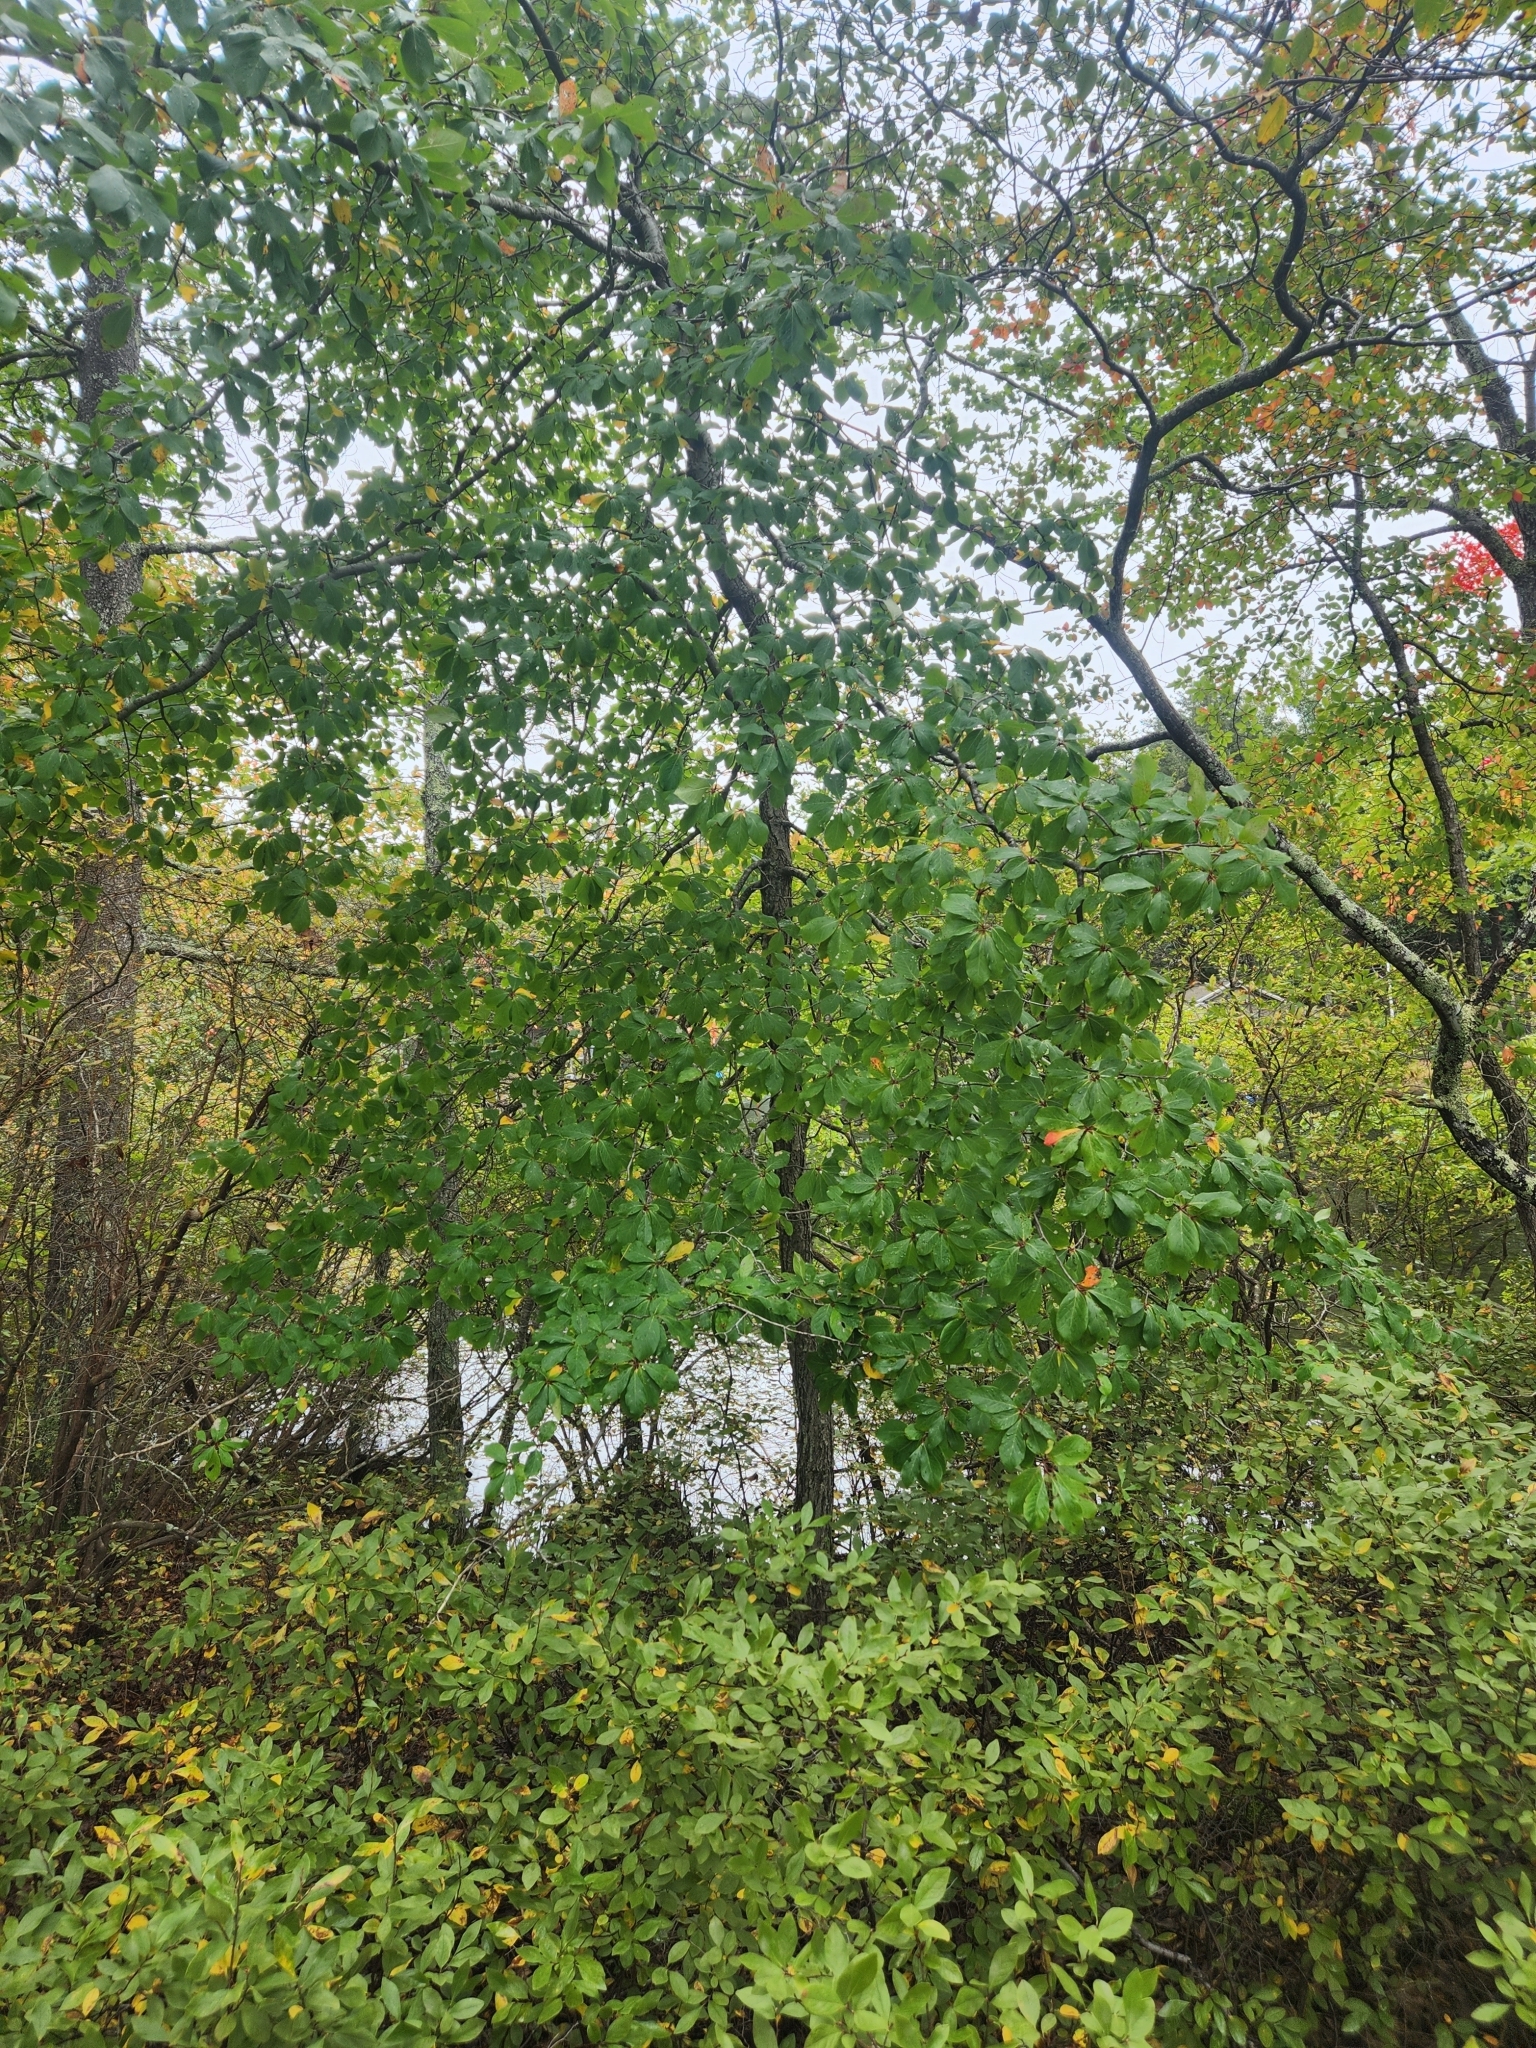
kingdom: Plantae
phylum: Tracheophyta
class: Magnoliopsida
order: Cornales
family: Nyssaceae
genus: Nyssa
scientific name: Nyssa sylvatica
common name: Black tupelo
